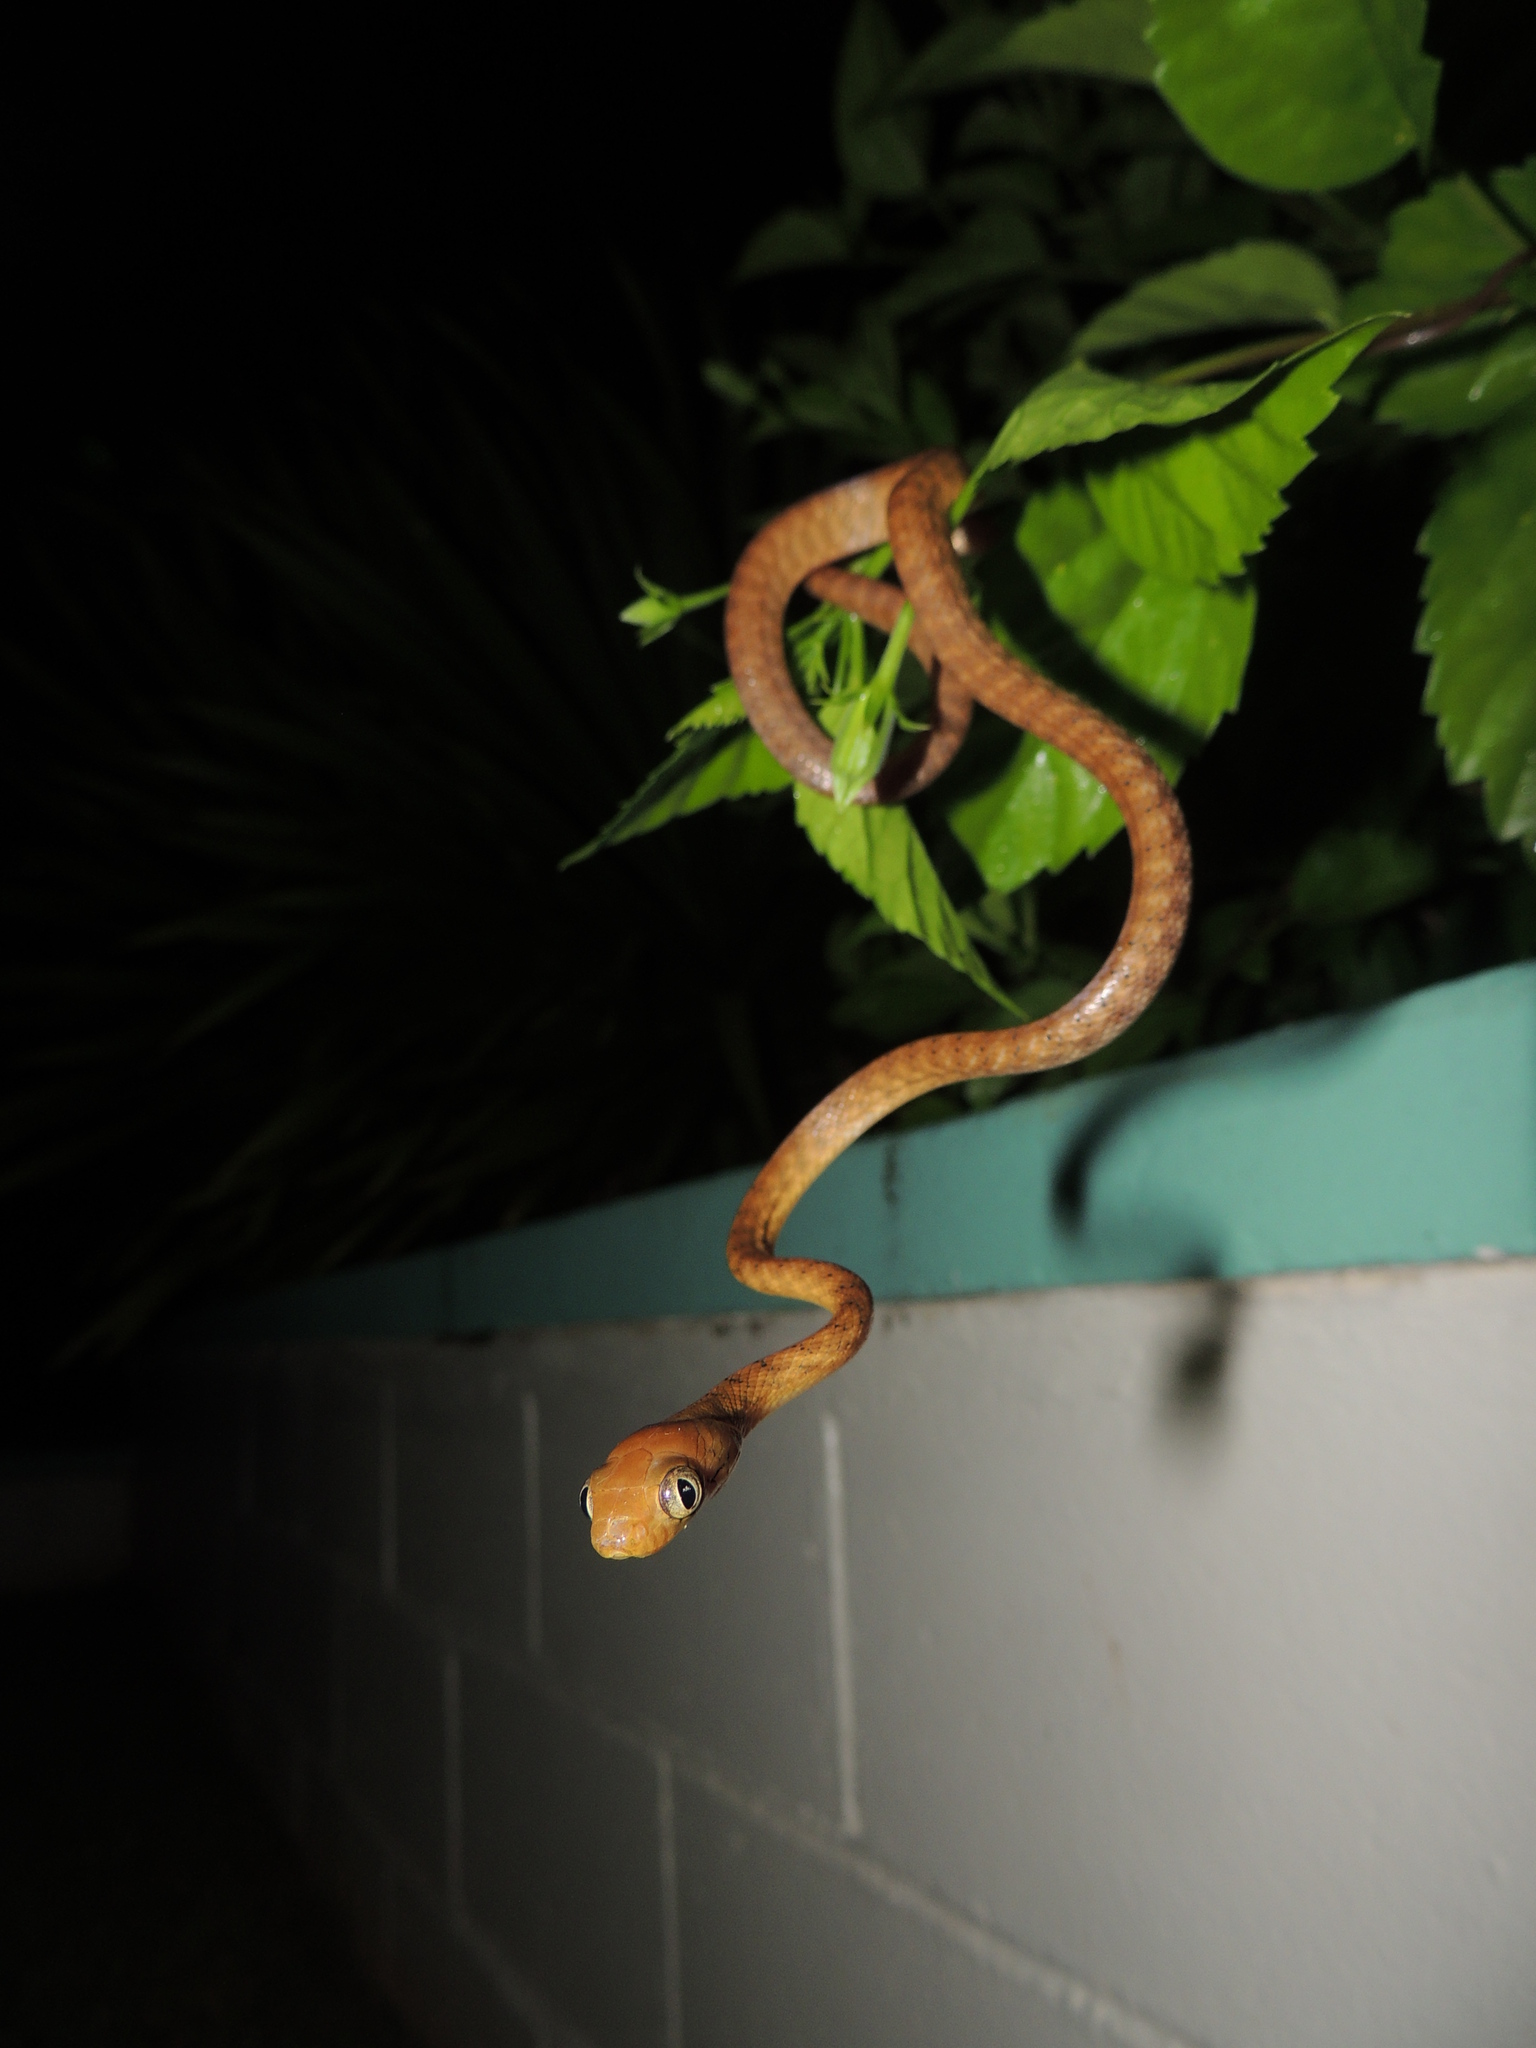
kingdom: Animalia
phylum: Chordata
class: Squamata
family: Colubridae
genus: Boiga
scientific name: Boiga irregularis
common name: Brown tree snake
